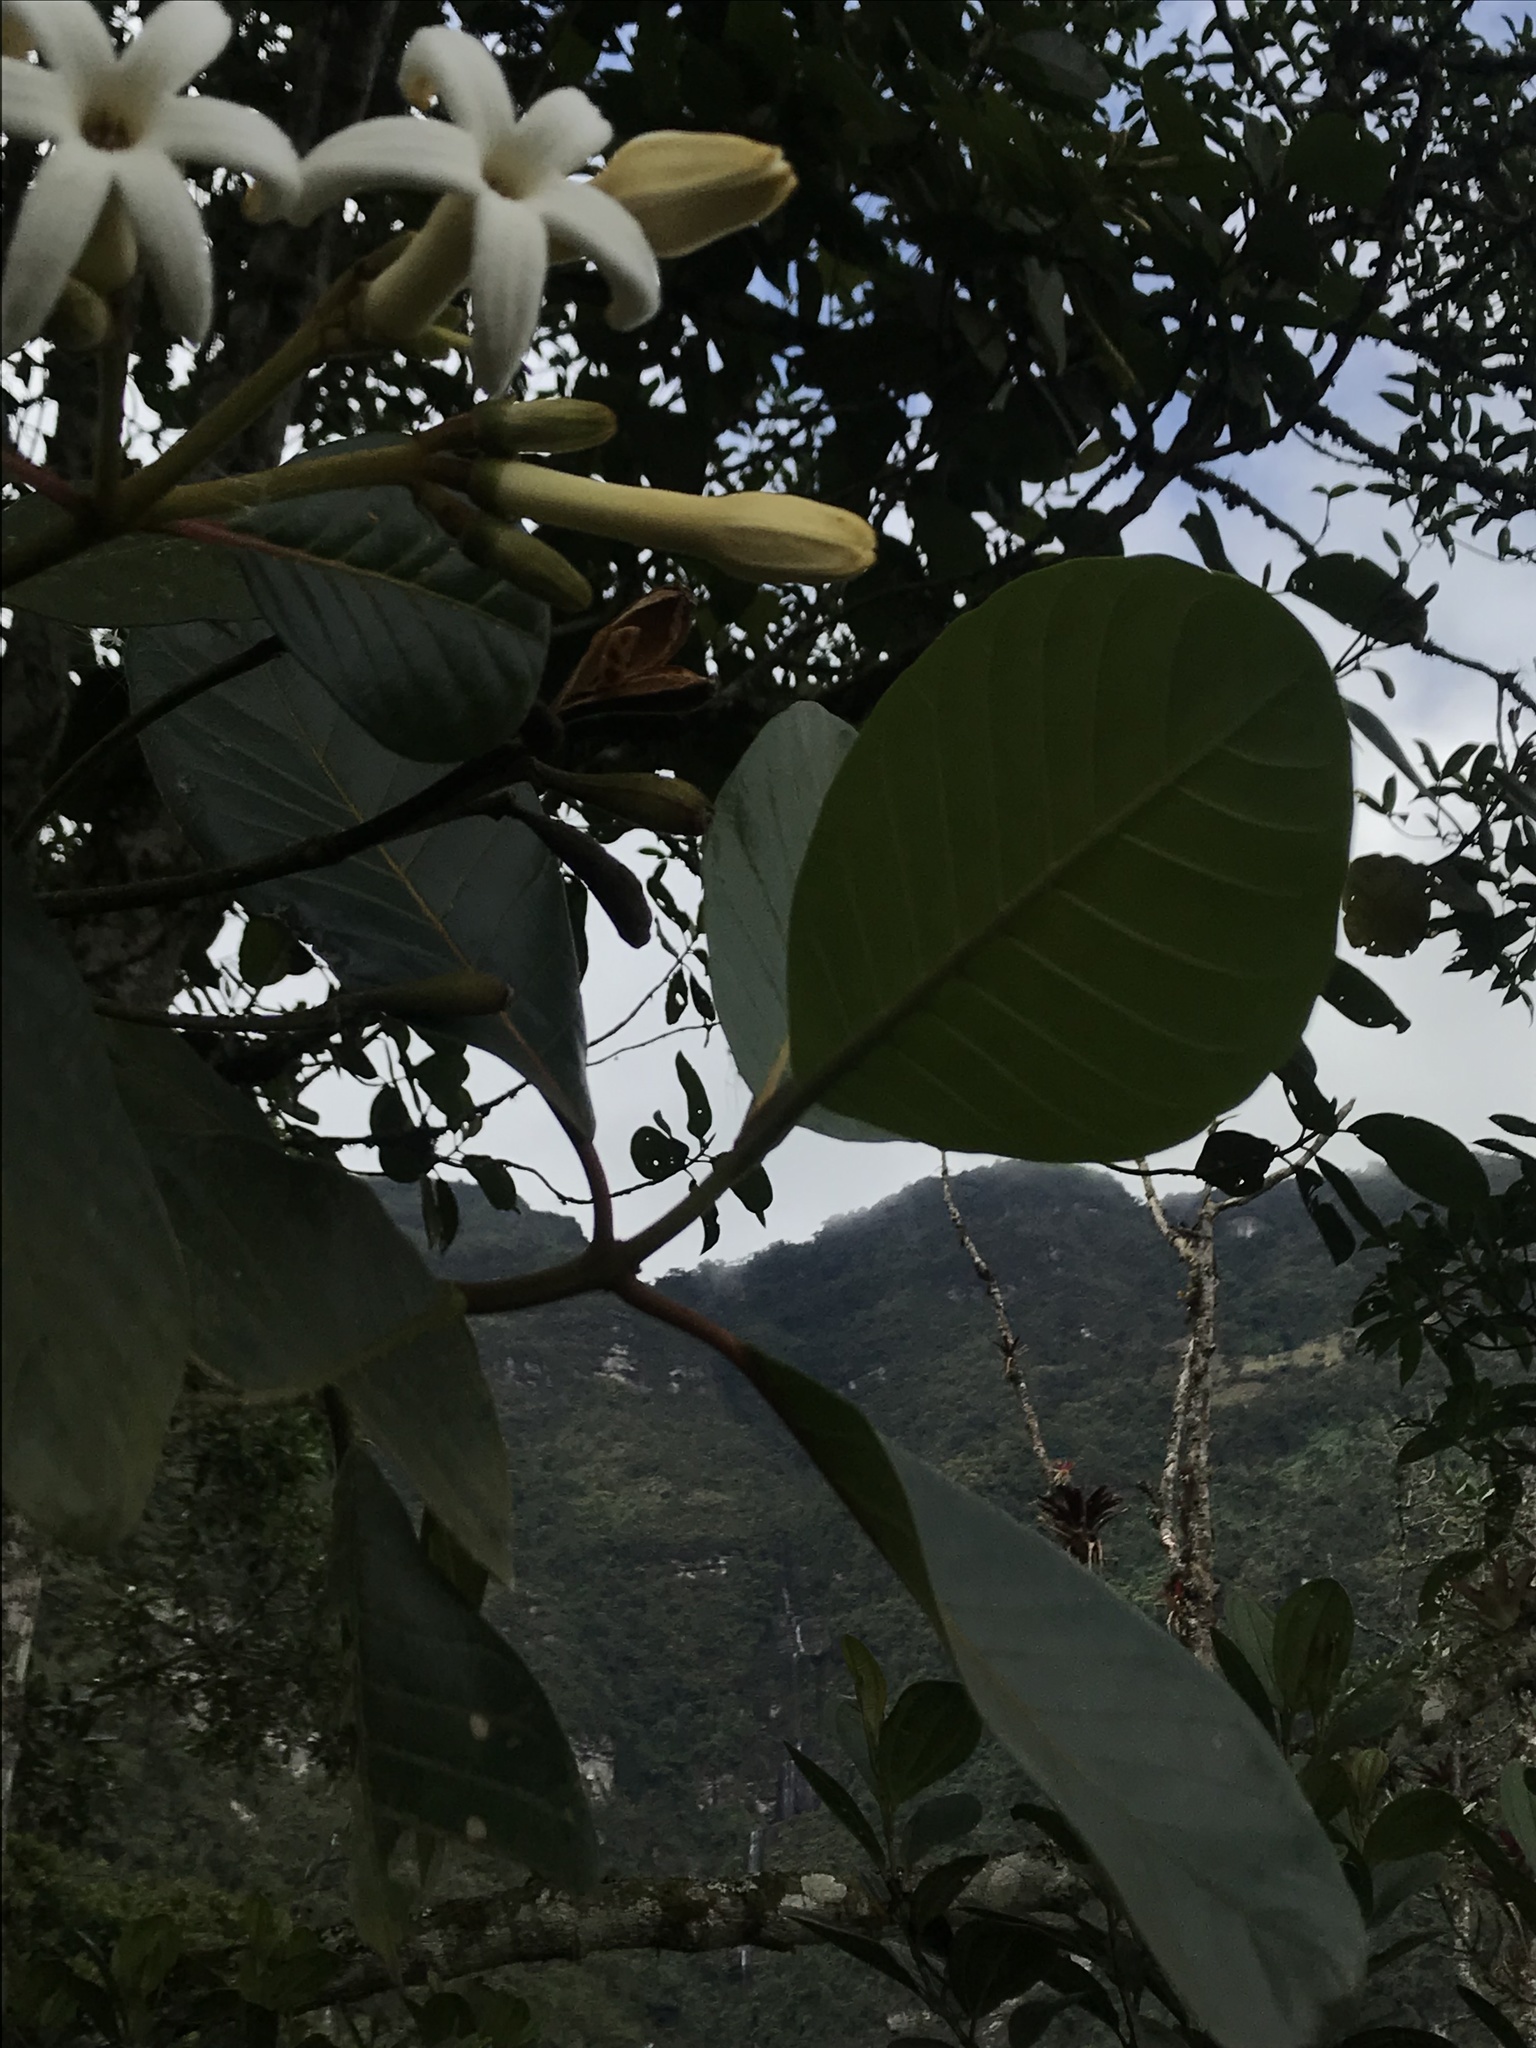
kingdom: Plantae
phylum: Tracheophyta
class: Magnoliopsida
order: Gentianales
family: Rubiaceae
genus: Ladenbergia
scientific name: Ladenbergia macrocarpa
